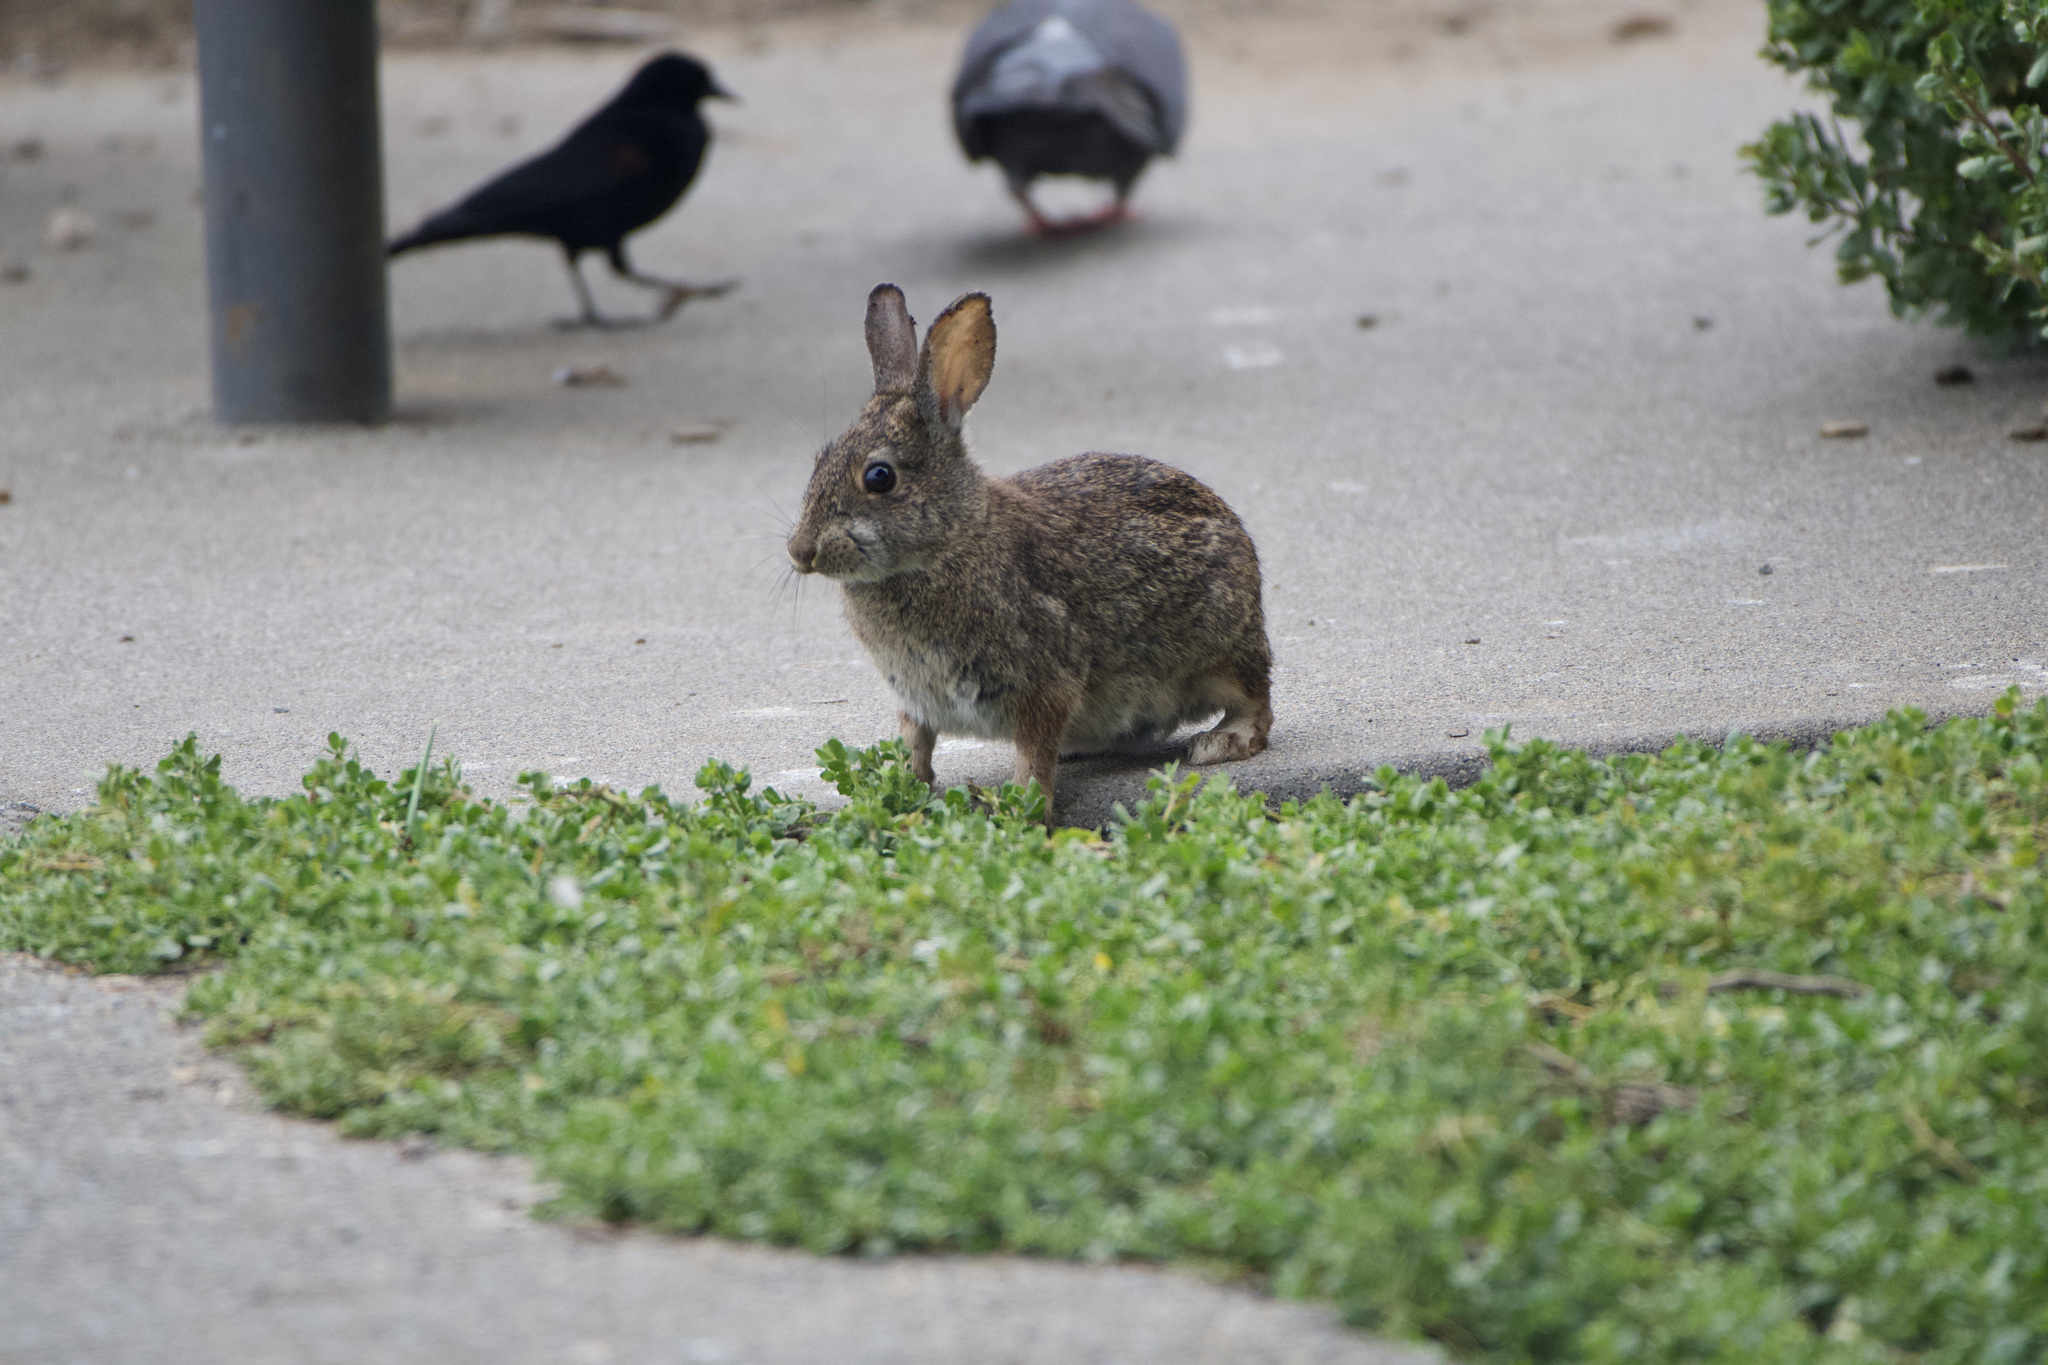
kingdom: Animalia
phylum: Chordata
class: Mammalia
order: Lagomorpha
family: Leporidae
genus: Sylvilagus
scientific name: Sylvilagus bachmani
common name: Brush rabbit
